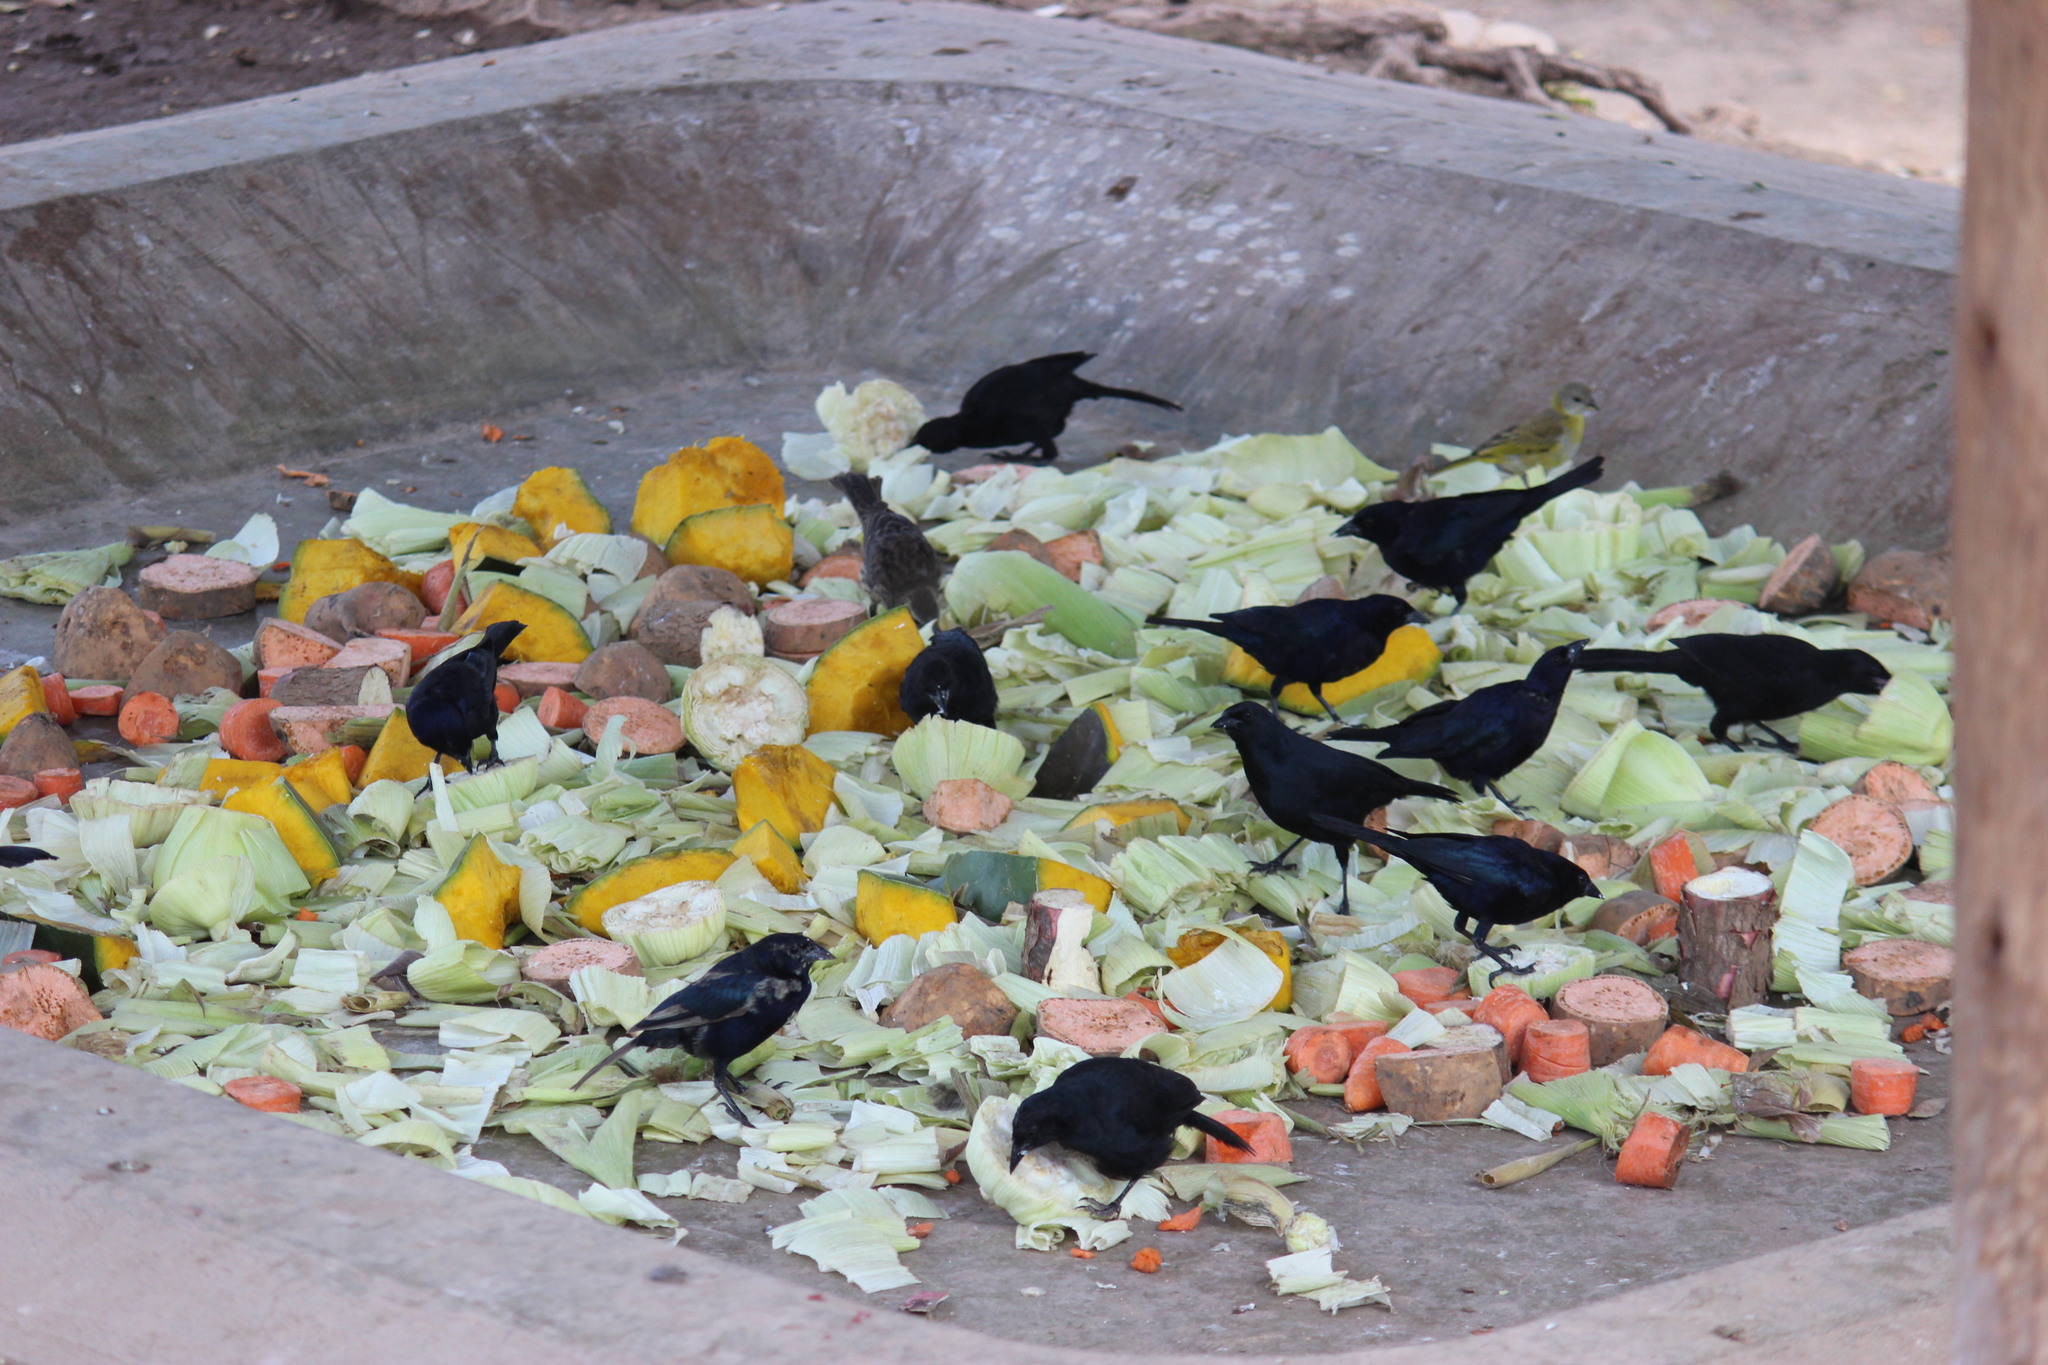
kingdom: Animalia
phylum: Chordata
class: Aves
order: Passeriformes
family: Icteridae
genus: Molothrus
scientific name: Molothrus bonariensis
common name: Shiny cowbird
